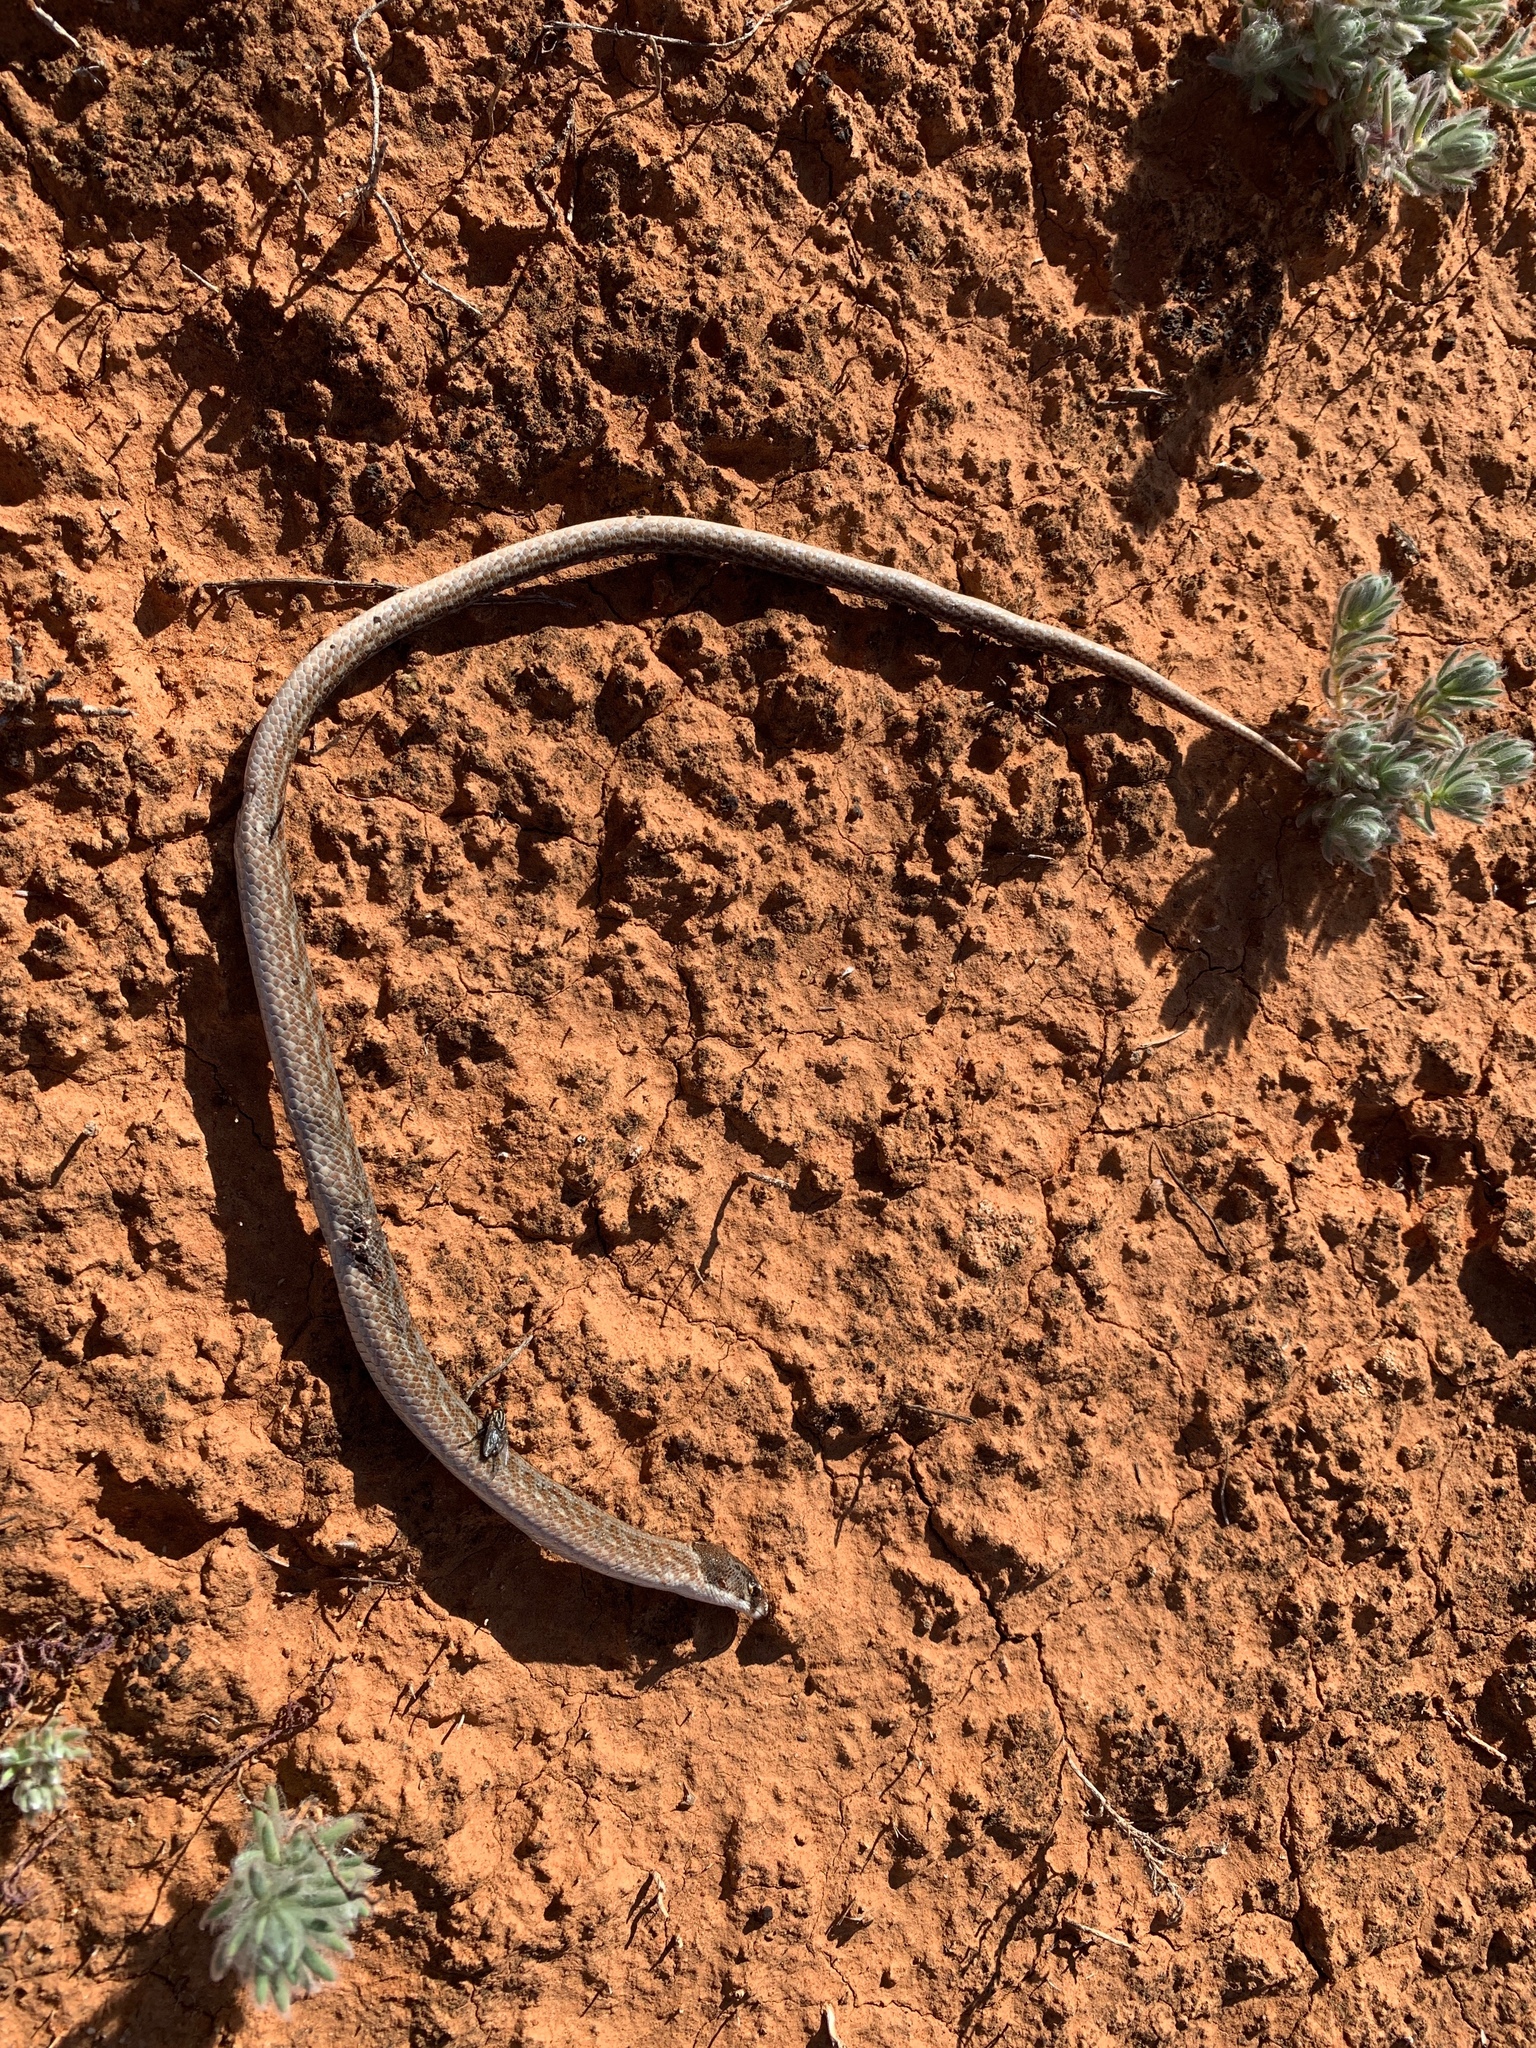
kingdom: Animalia
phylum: Chordata
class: Squamata
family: Pygopodidae
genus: Pygopus
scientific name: Pygopus schraderi
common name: Eastern scaly-foot
